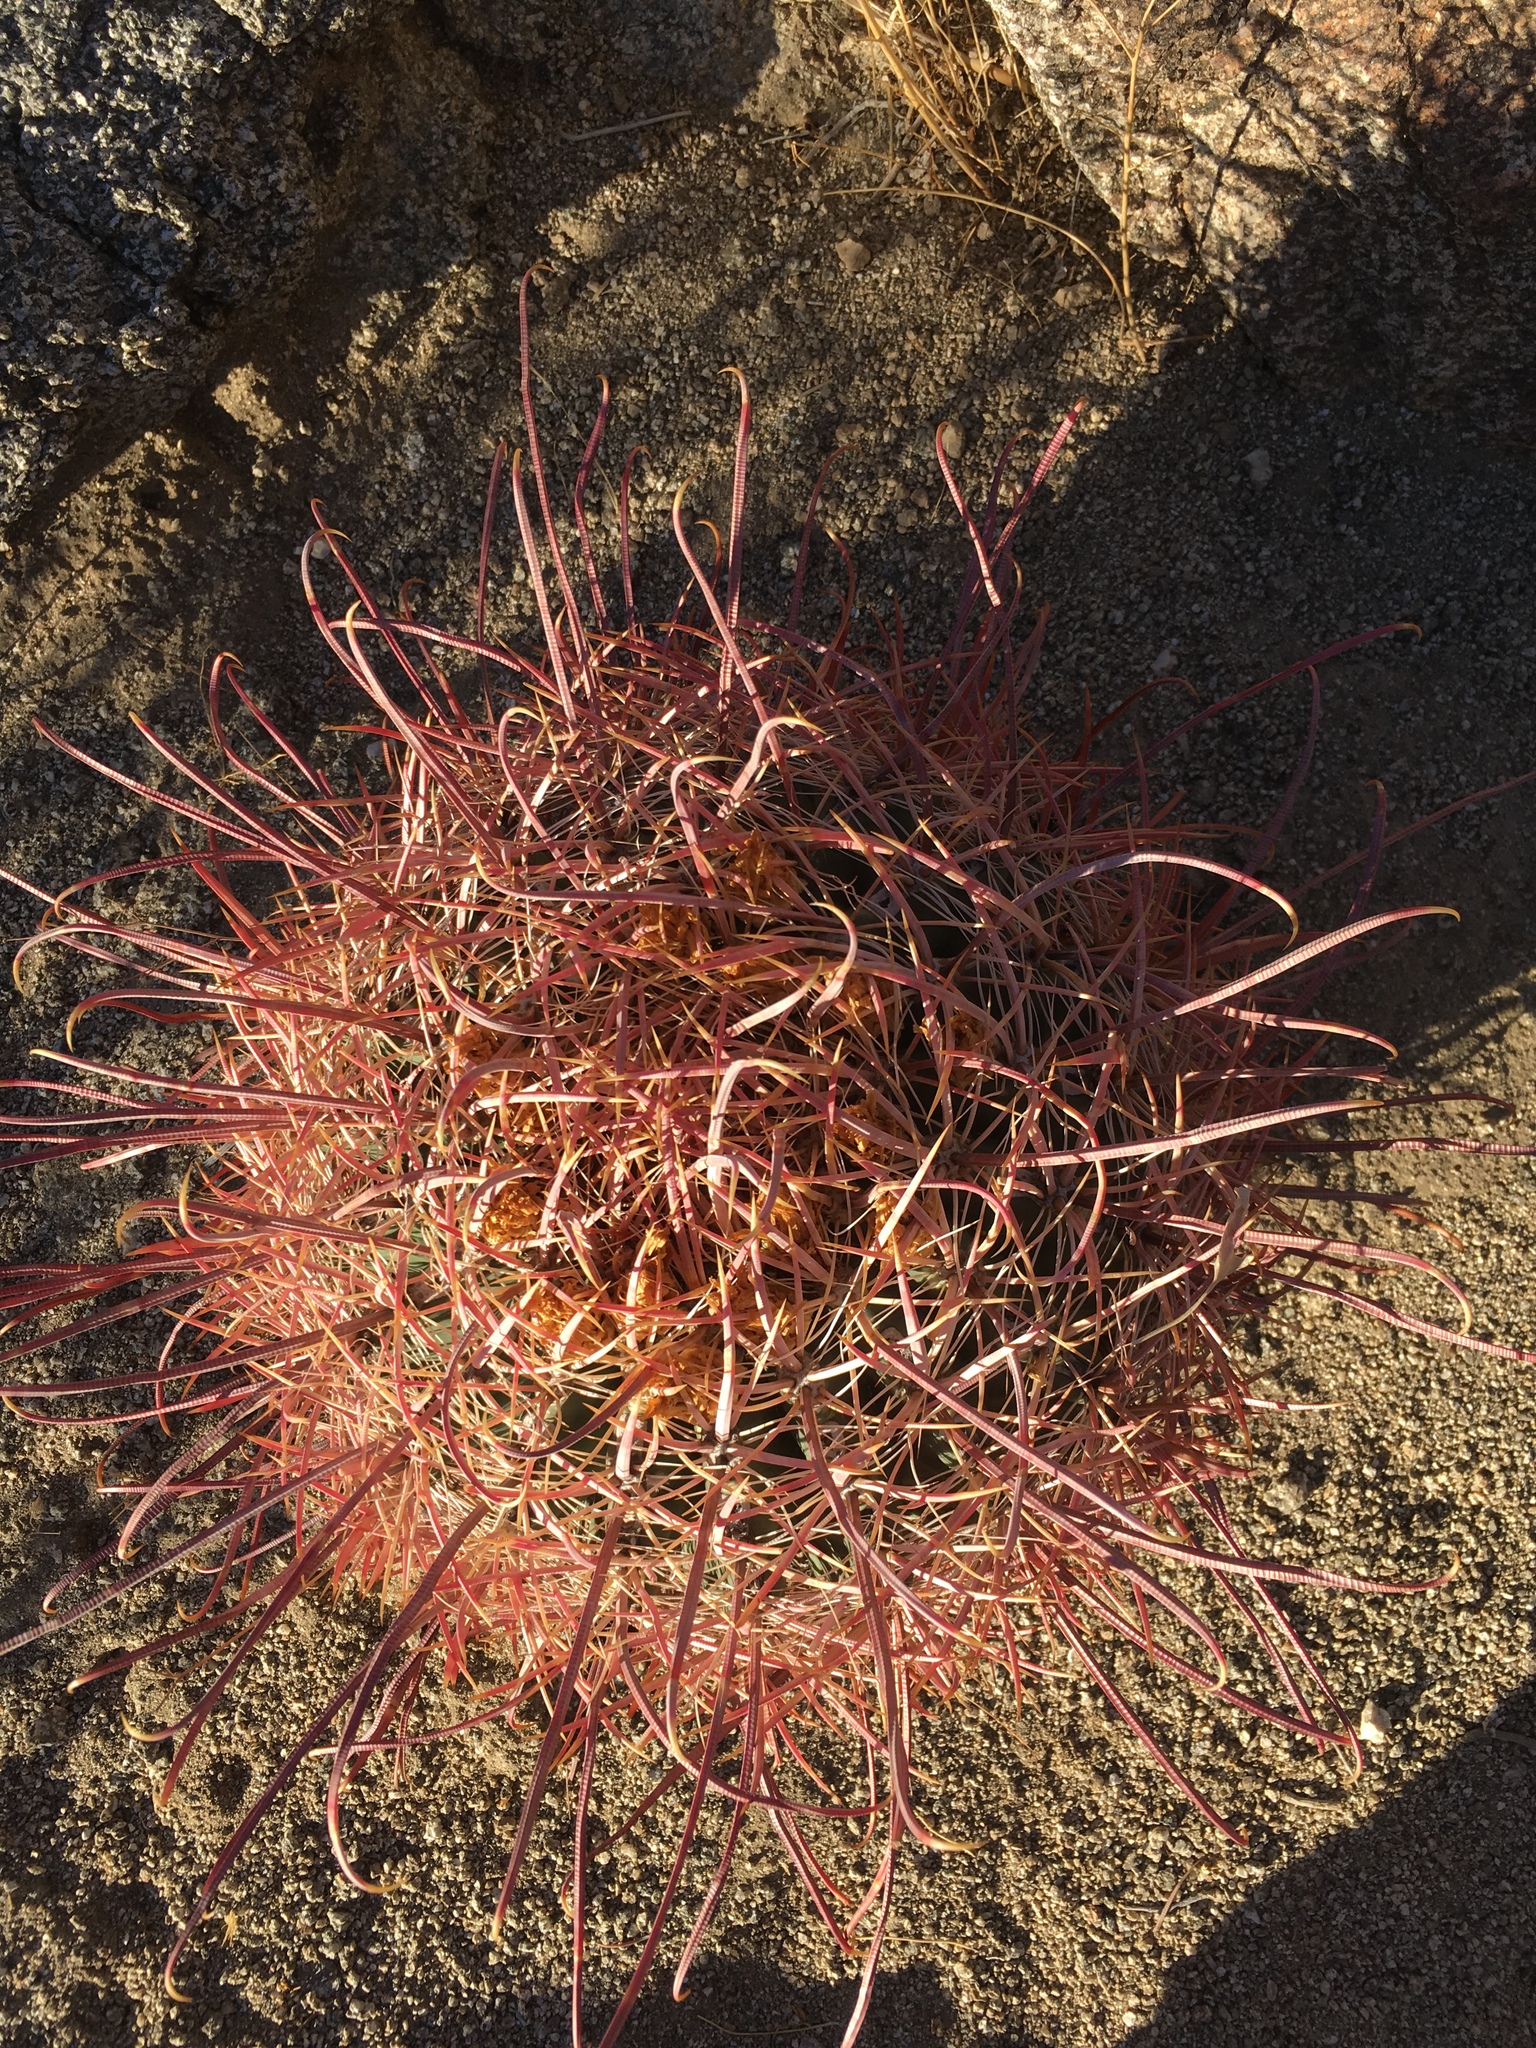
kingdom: Plantae
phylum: Tracheophyta
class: Magnoliopsida
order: Caryophyllales
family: Cactaceae
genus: Ferocactus
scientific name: Ferocactus cylindraceus
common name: California barrel cactus
